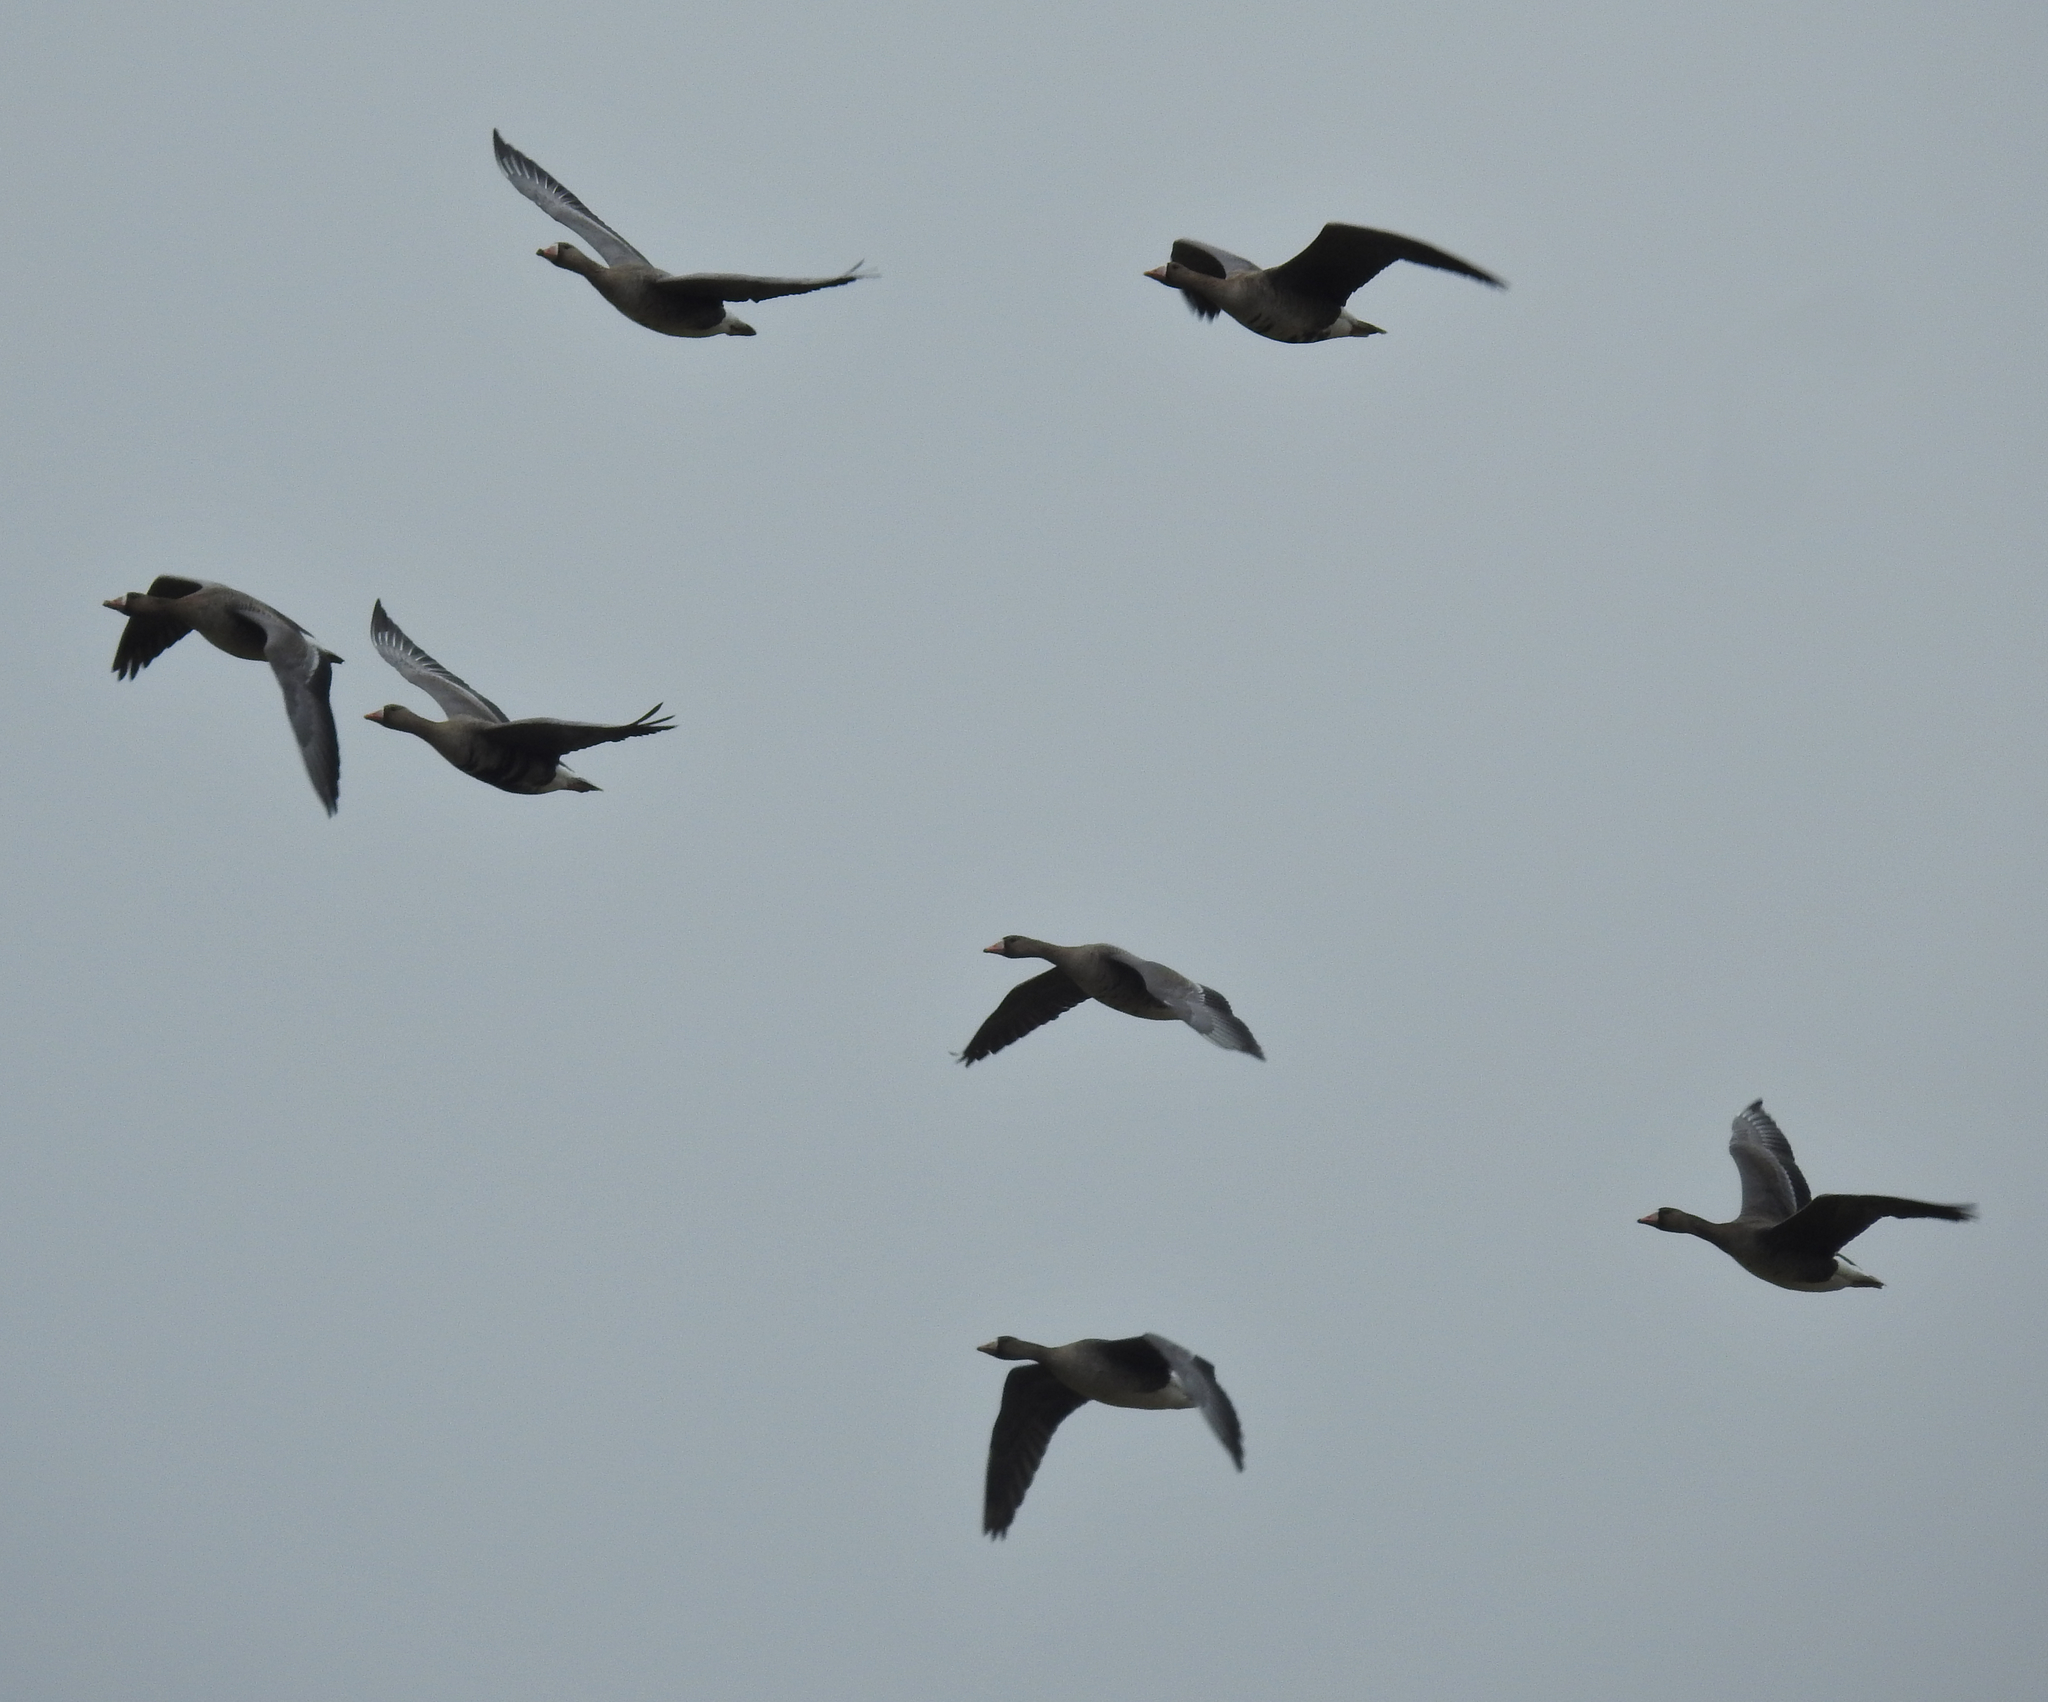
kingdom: Animalia
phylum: Chordata
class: Aves
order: Anseriformes
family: Anatidae
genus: Anser
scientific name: Anser albifrons
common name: Greater white-fronted goose
